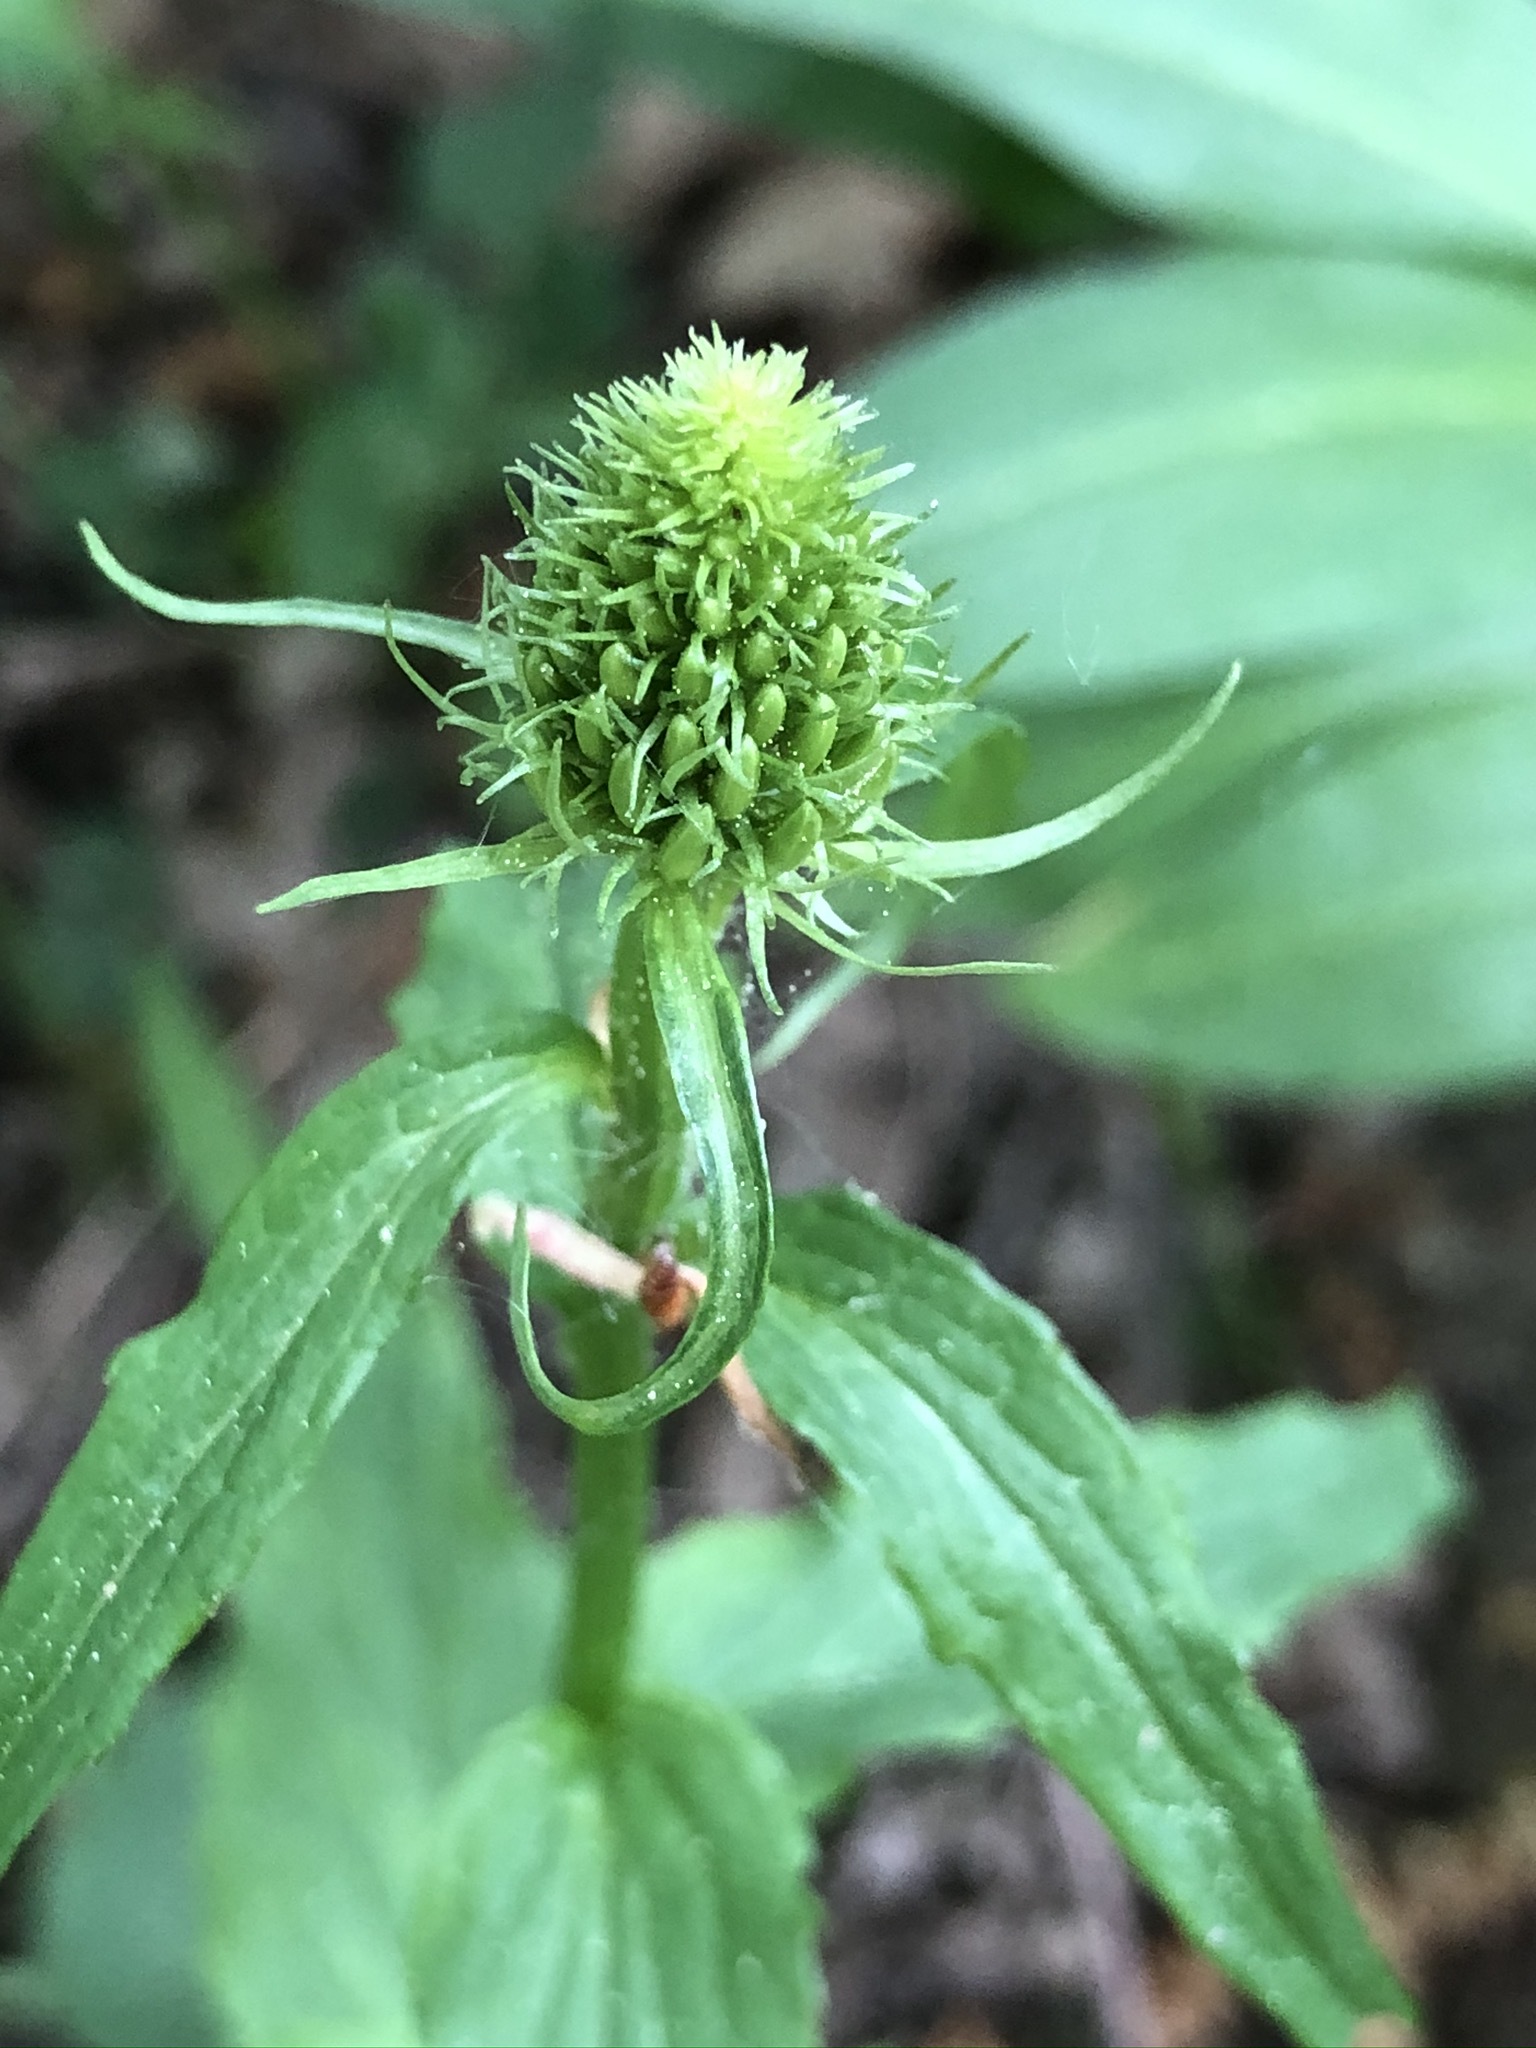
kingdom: Plantae
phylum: Tracheophyta
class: Magnoliopsida
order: Asterales
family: Campanulaceae
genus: Phyteuma
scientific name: Phyteuma spicatum
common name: Spiked rampion
